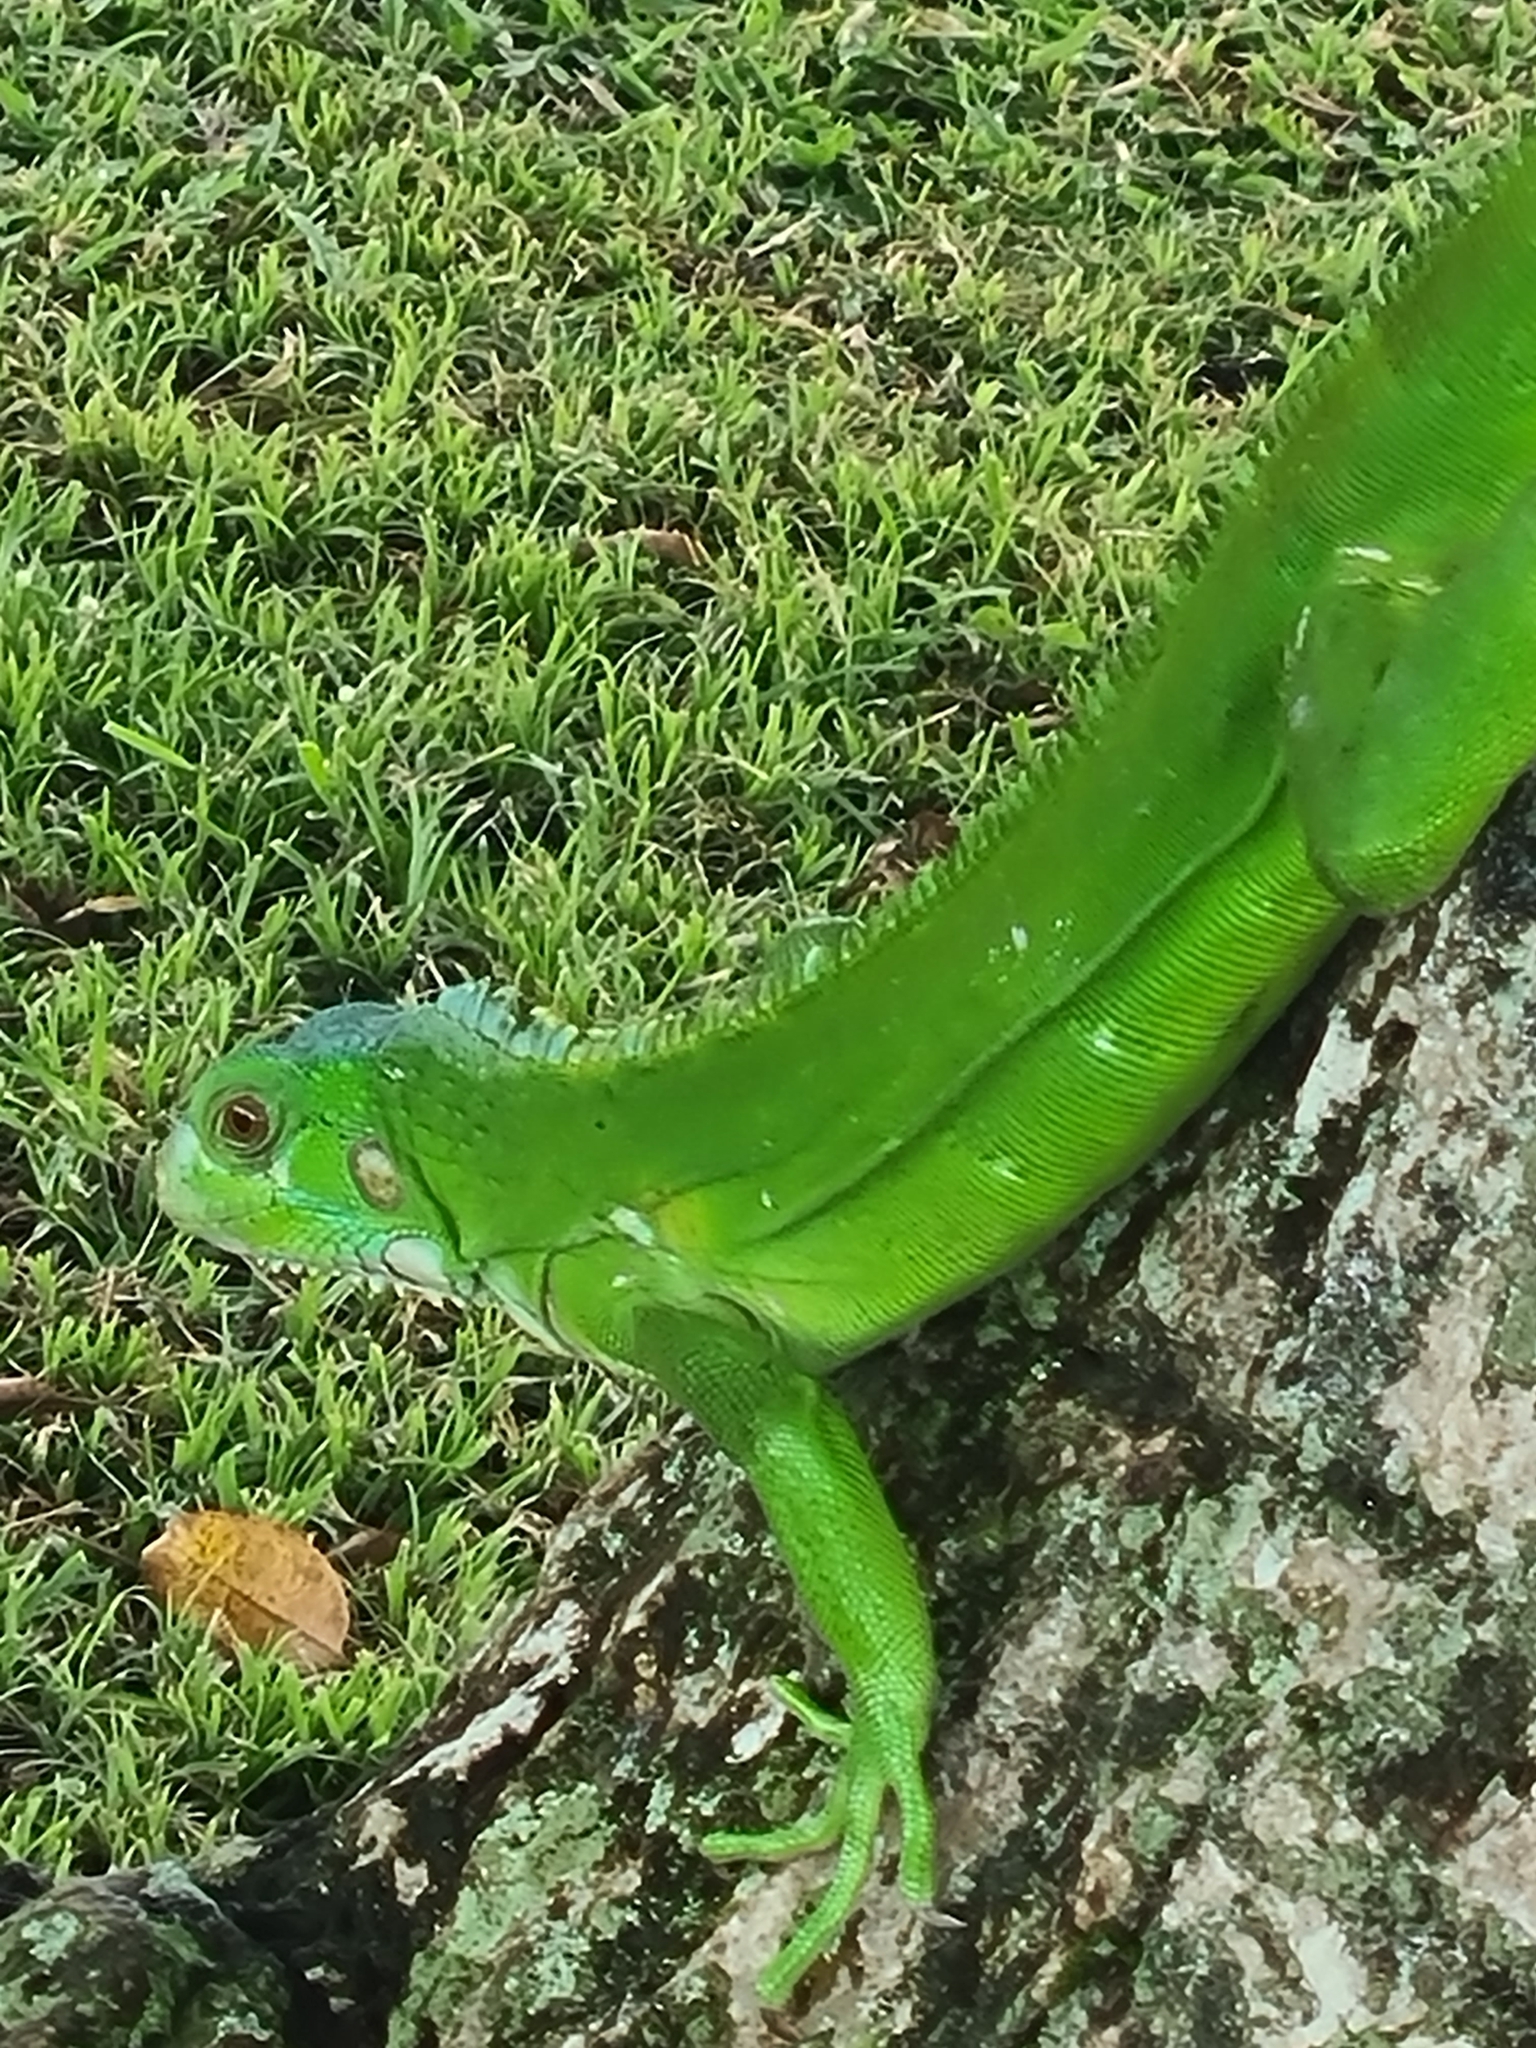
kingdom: Animalia
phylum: Chordata
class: Squamata
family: Iguanidae
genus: Iguana
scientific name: Iguana iguana
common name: Green iguana
